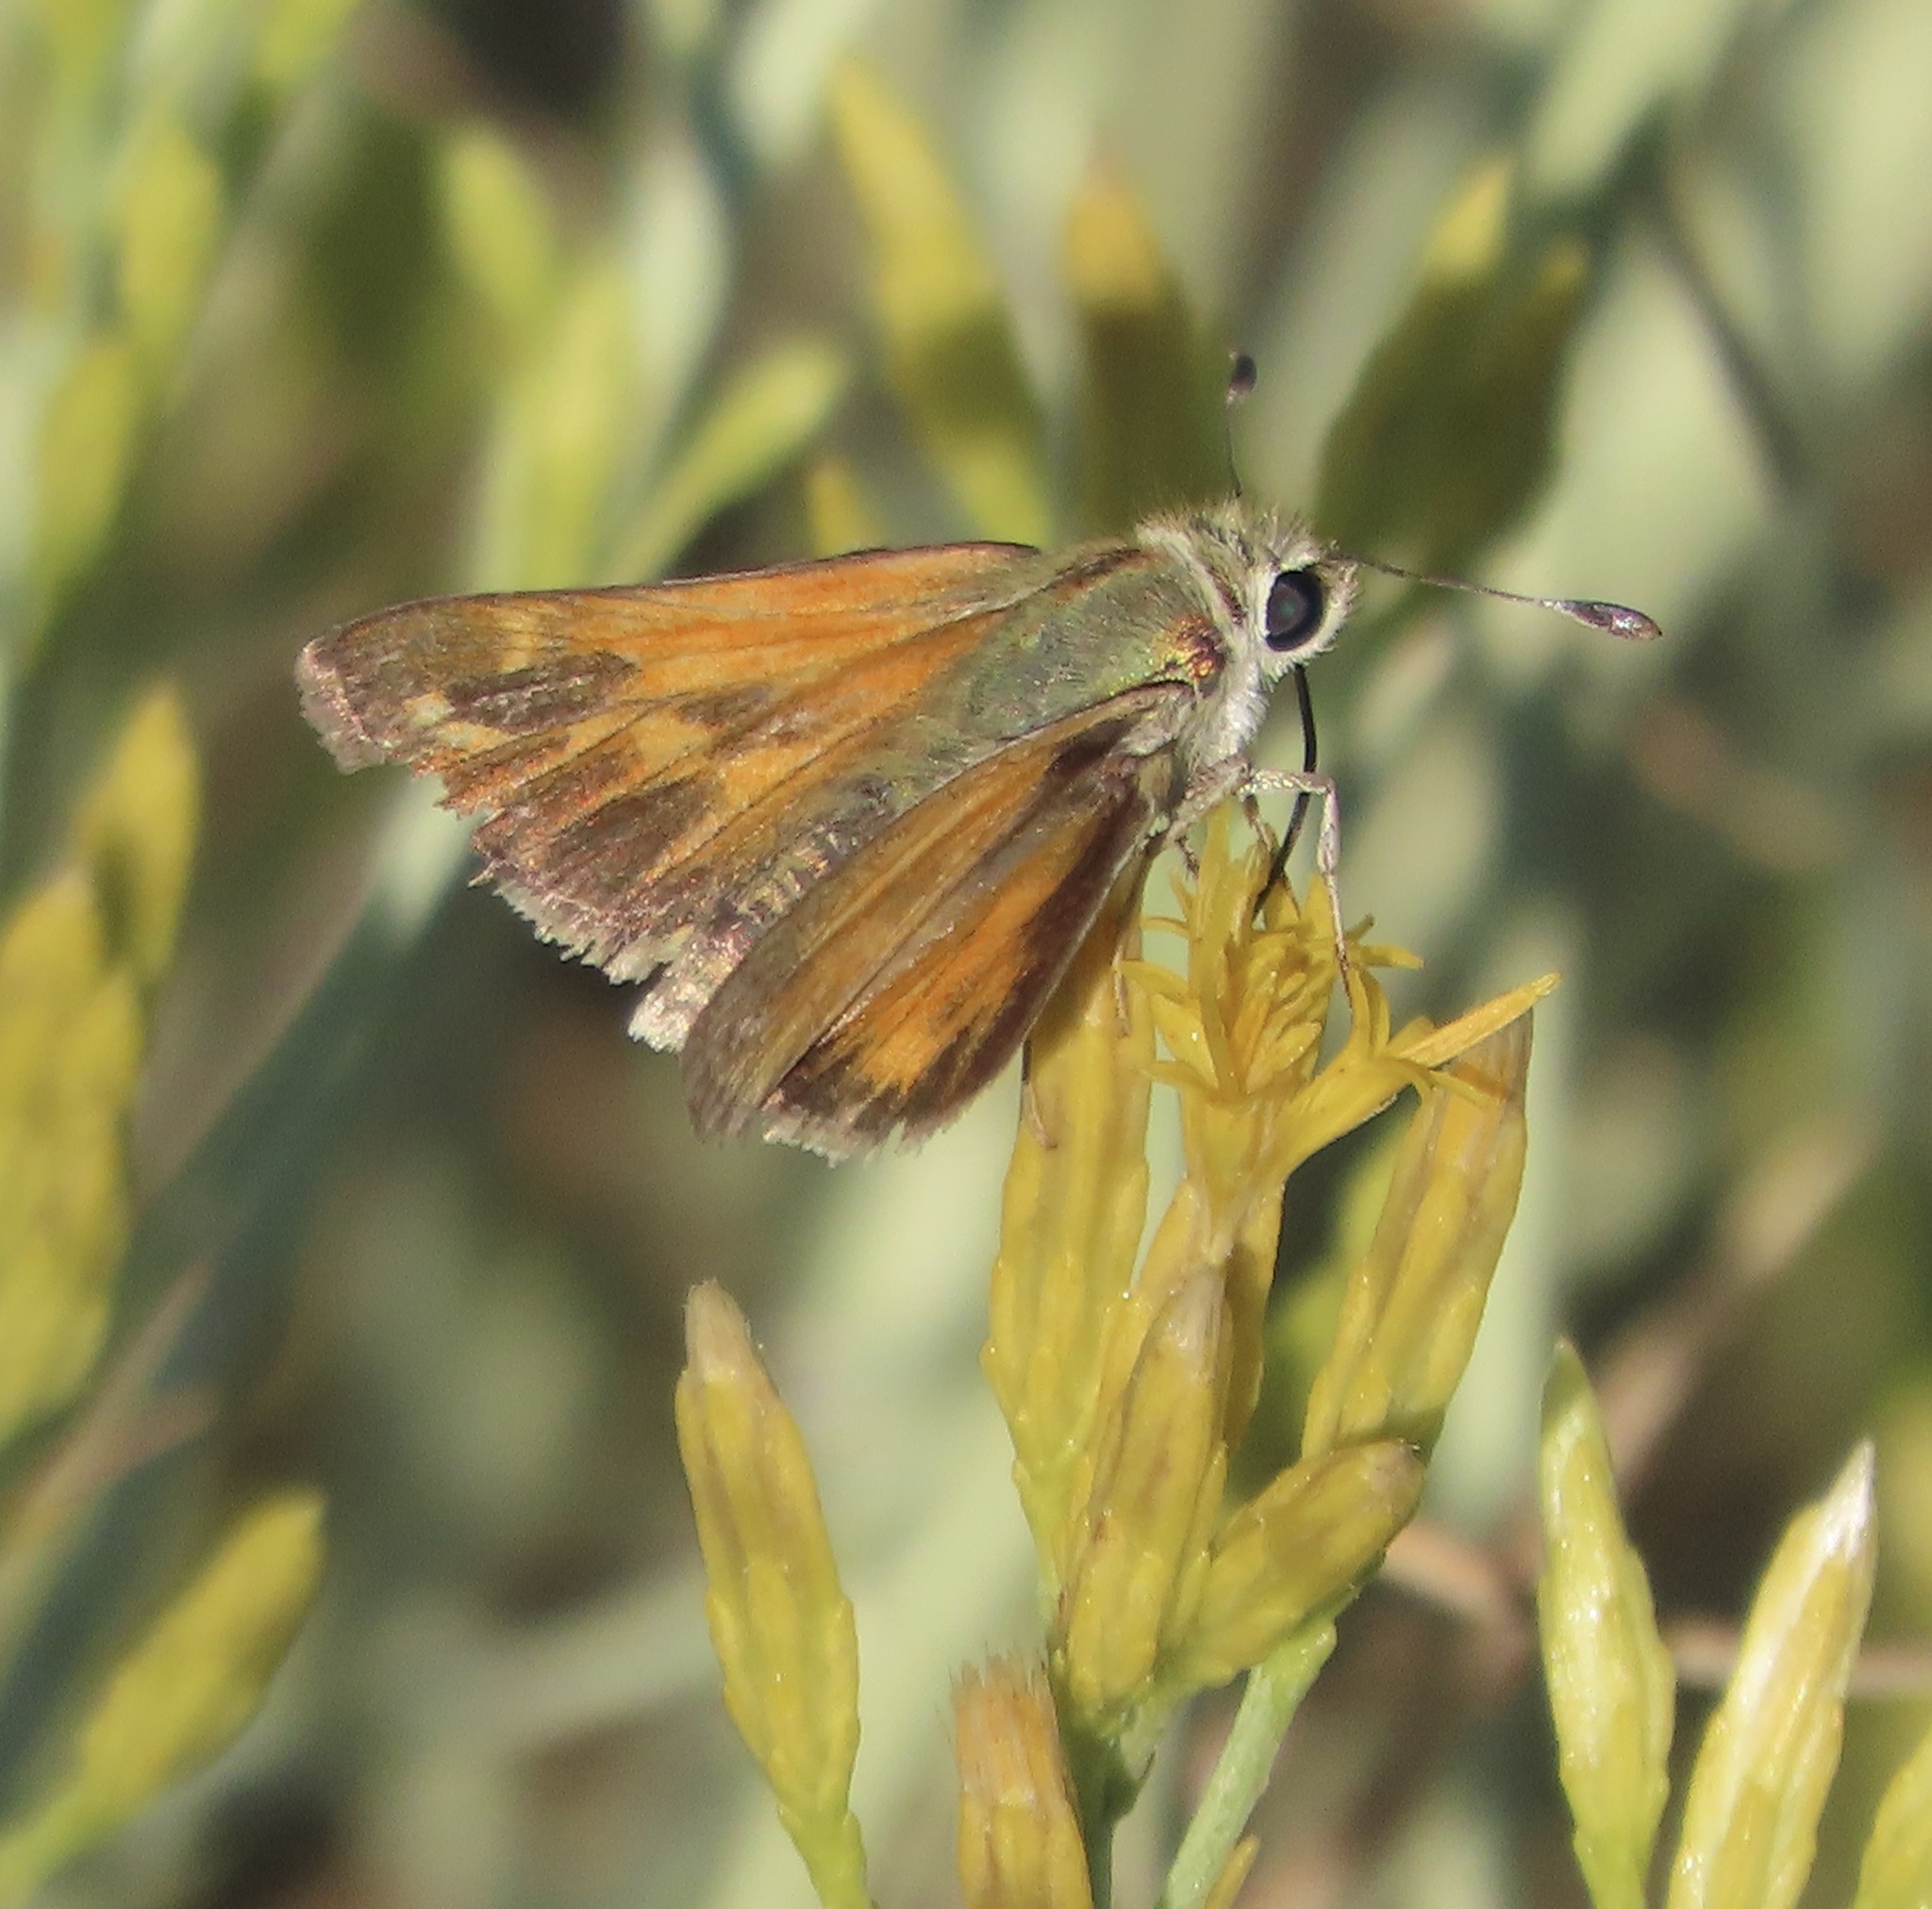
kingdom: Animalia
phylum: Arthropoda
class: Insecta
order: Lepidoptera
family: Hesperiidae
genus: Hesperia
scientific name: Hesperia columbia
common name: Columbian skipper
